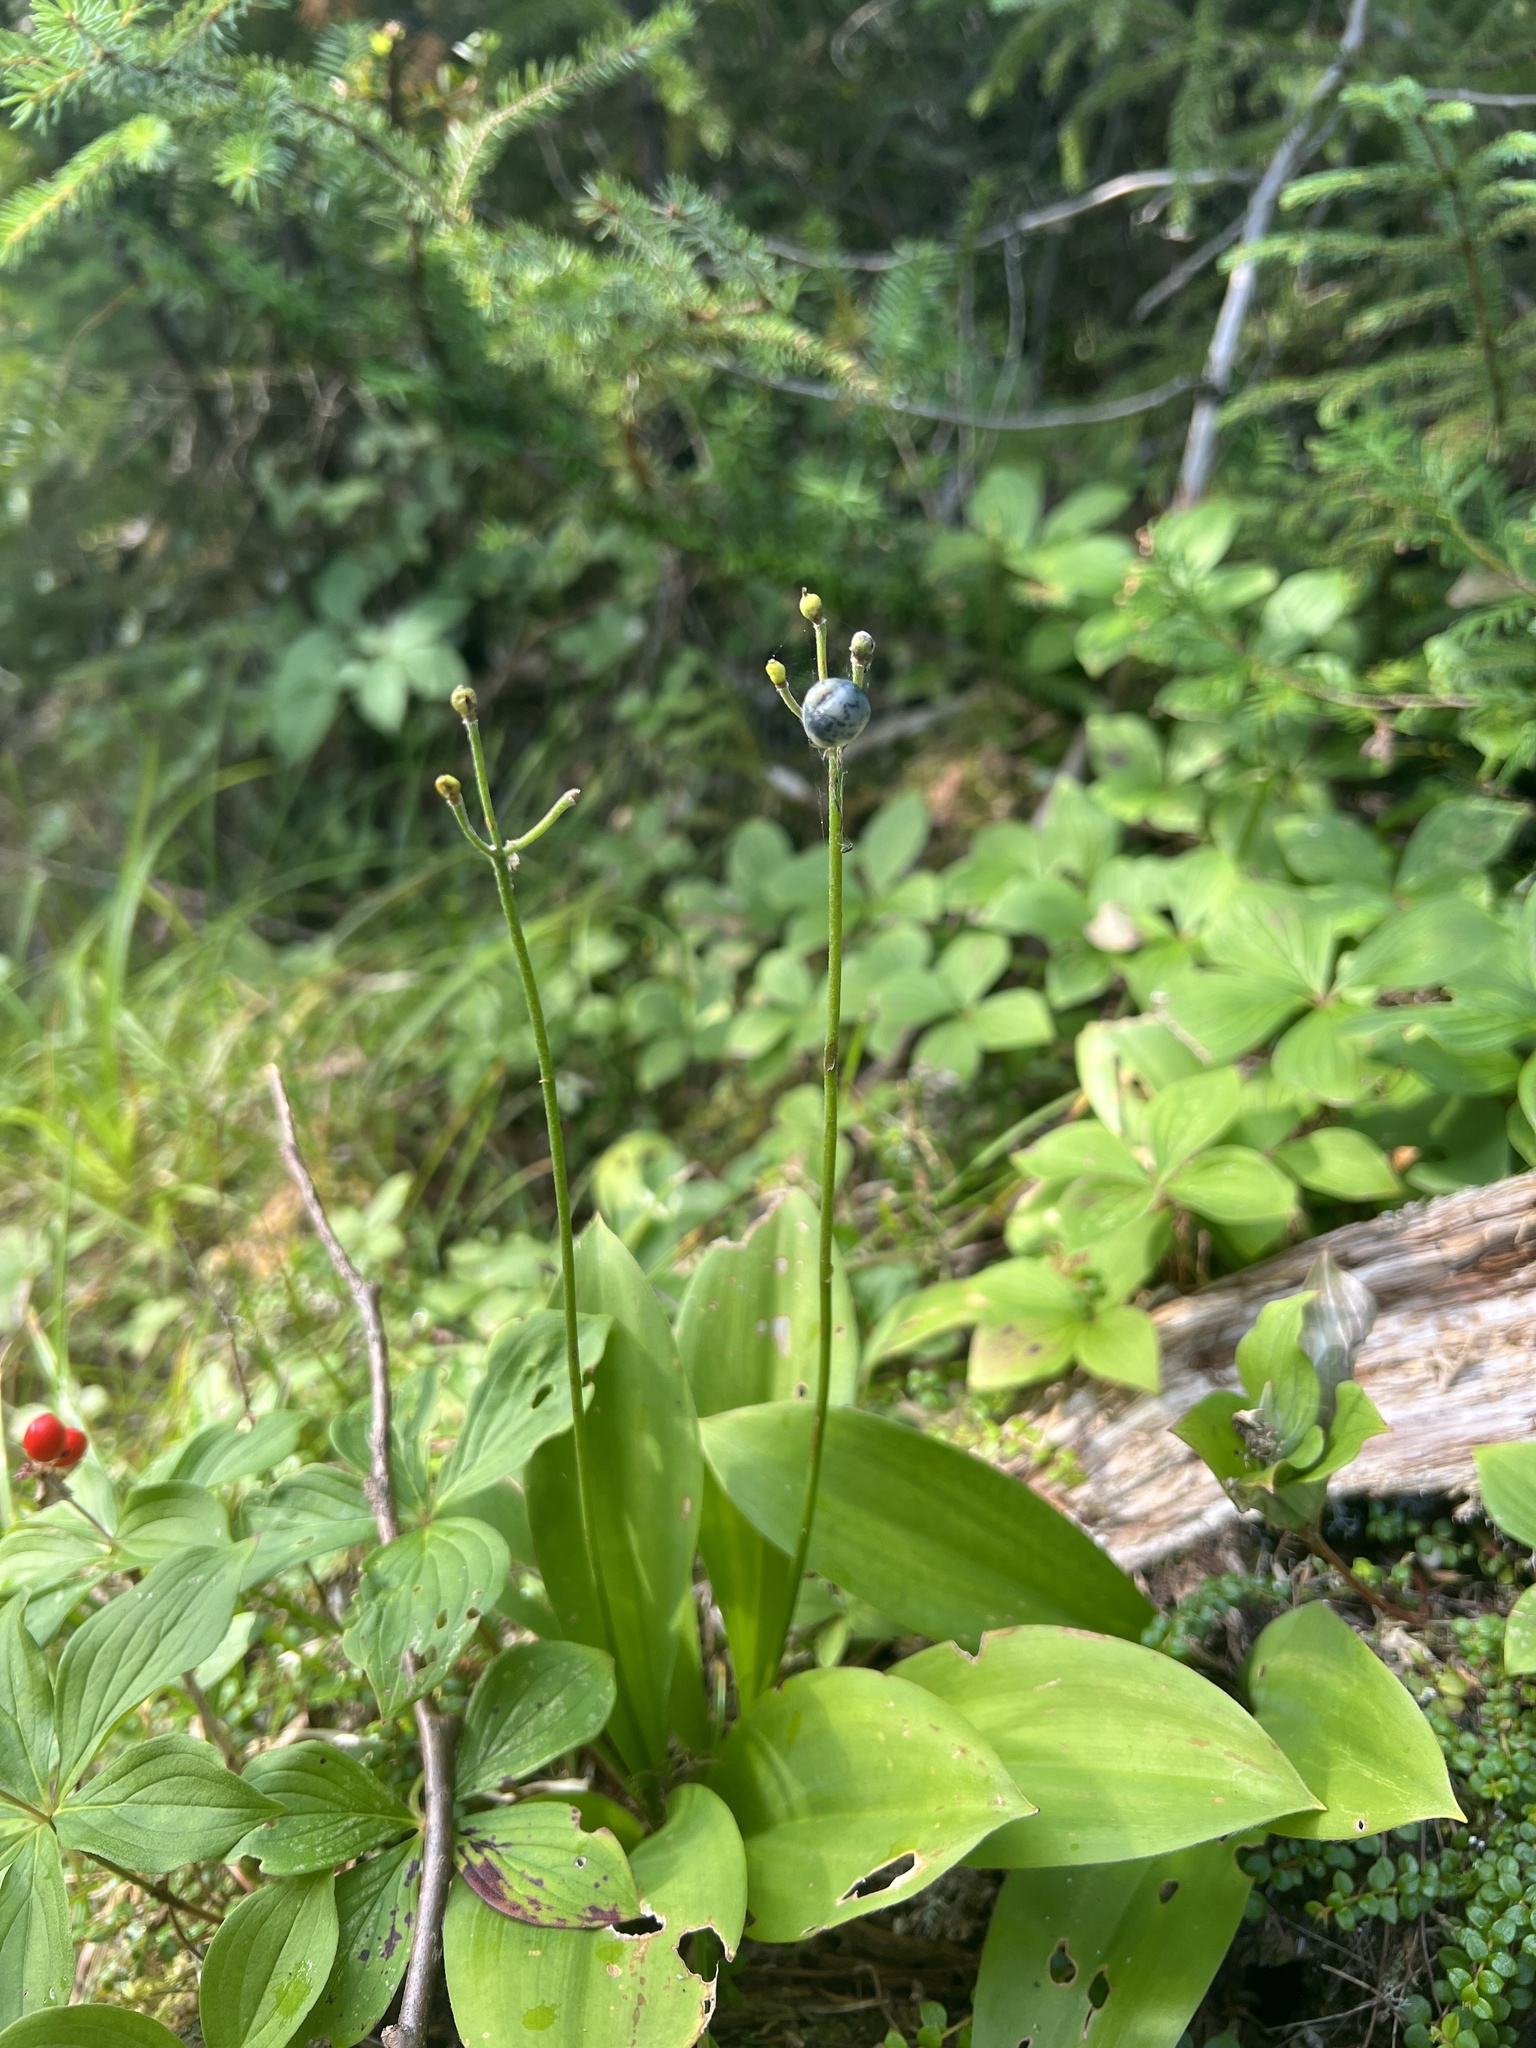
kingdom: Plantae
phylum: Tracheophyta
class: Liliopsida
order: Liliales
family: Liliaceae
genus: Clintonia
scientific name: Clintonia borealis
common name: Yellow clintonia
